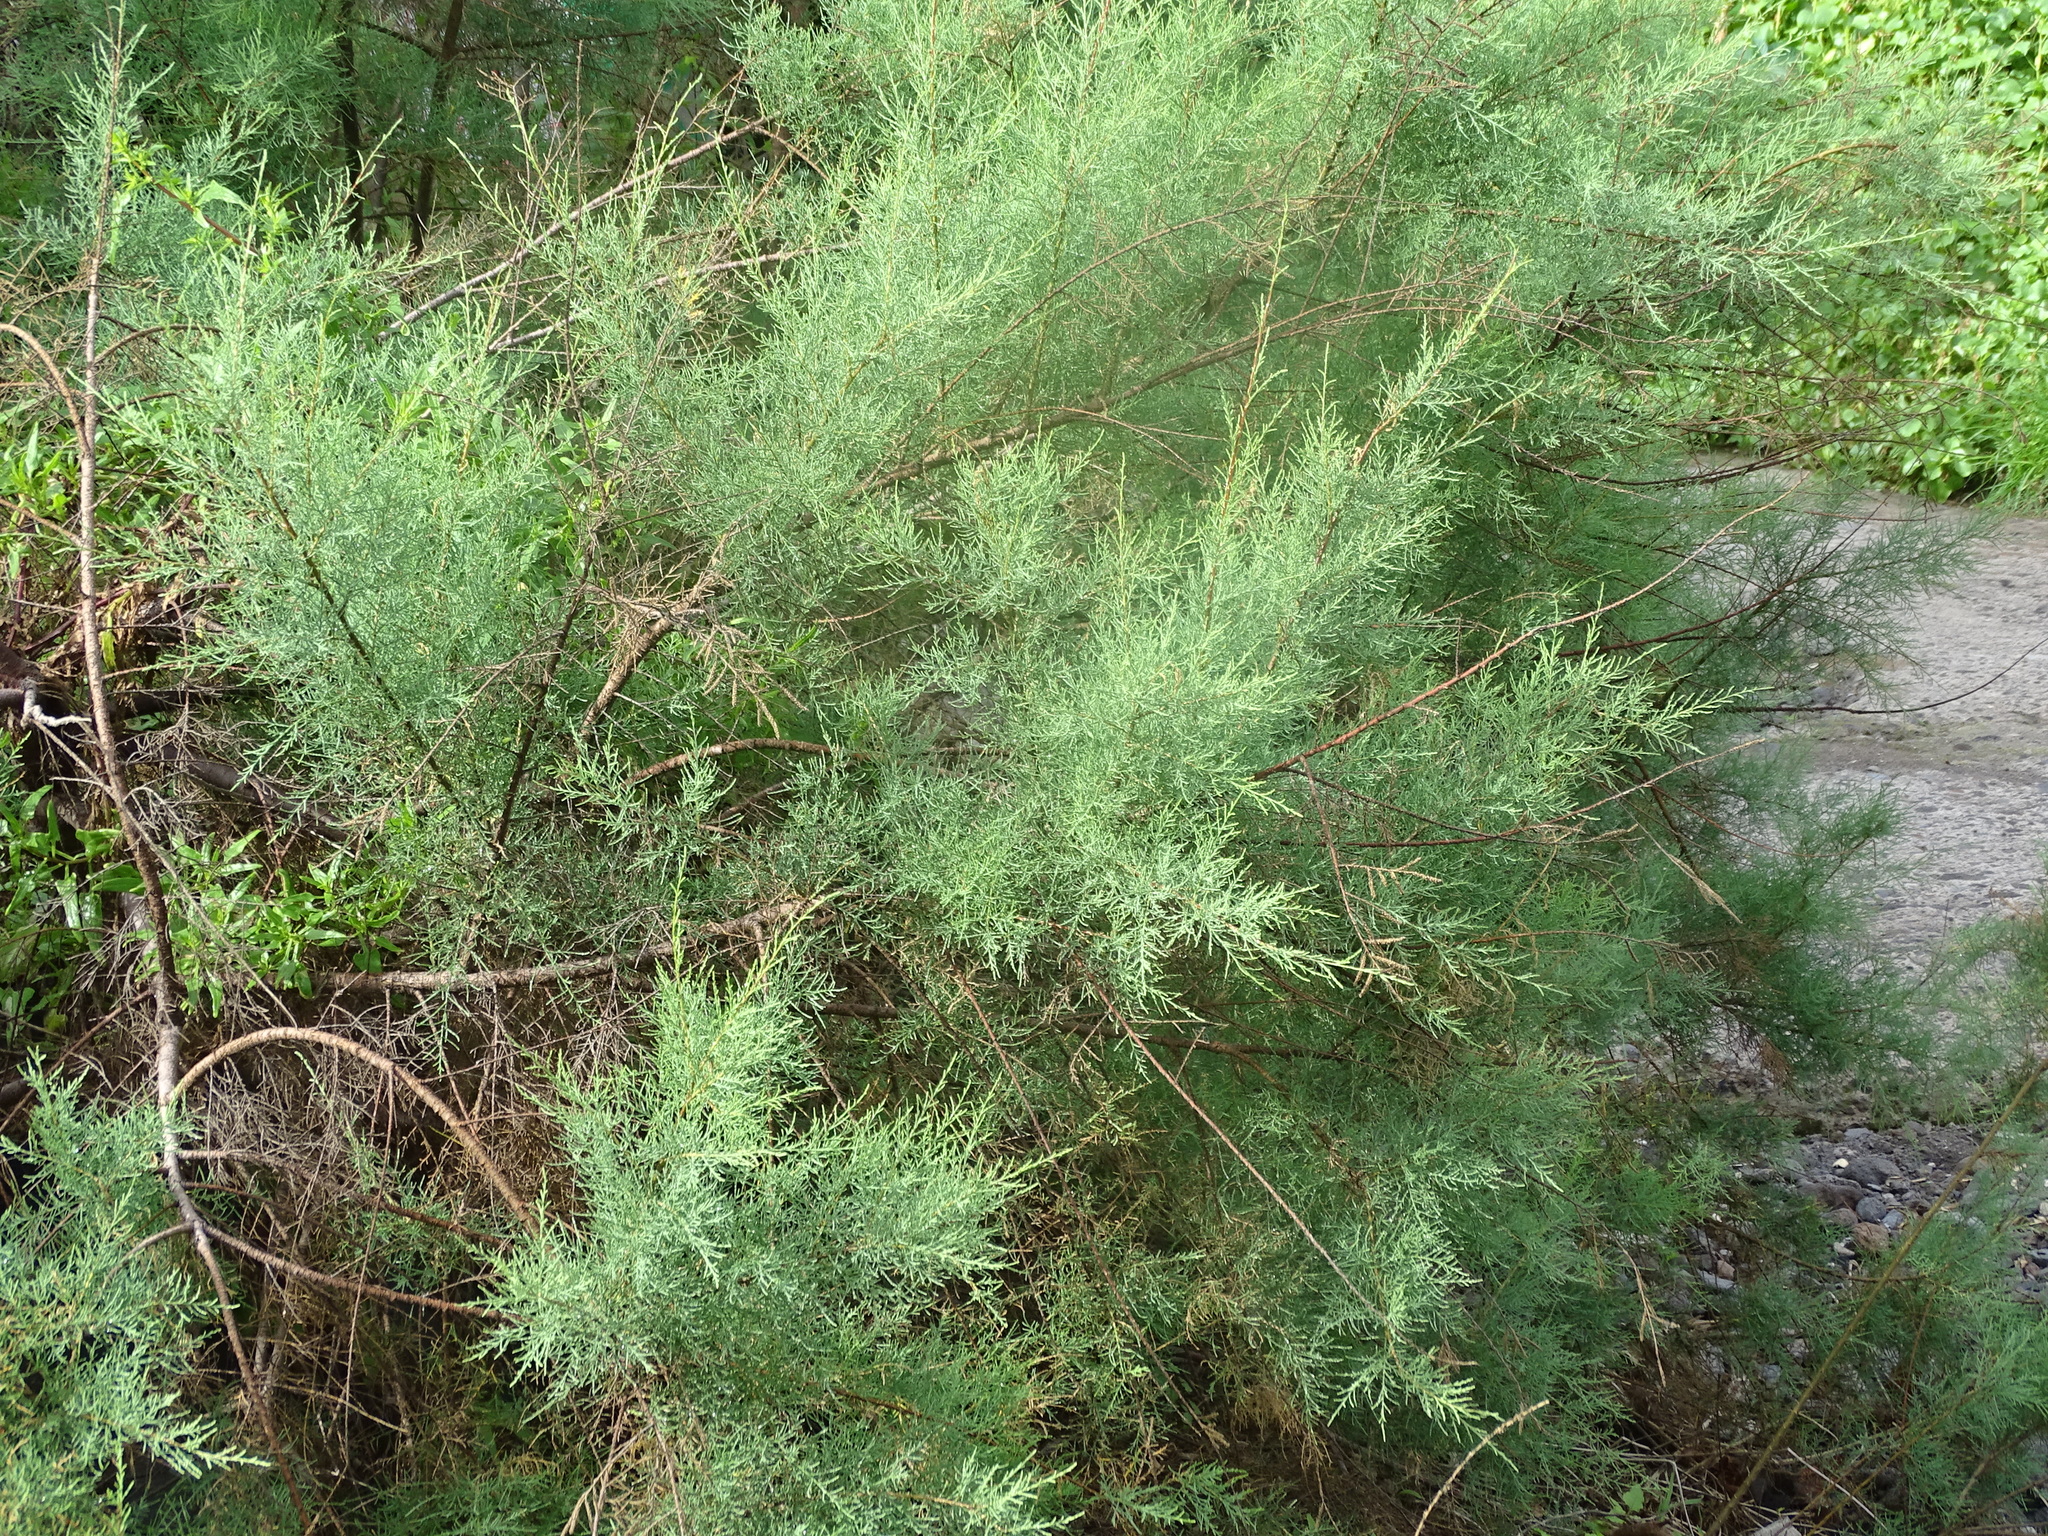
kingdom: Plantae
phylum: Tracheophyta
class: Magnoliopsida
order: Caryophyllales
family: Tamaricaceae
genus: Tamarix
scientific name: Tamarix canariensis
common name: Canary island tamarisk
